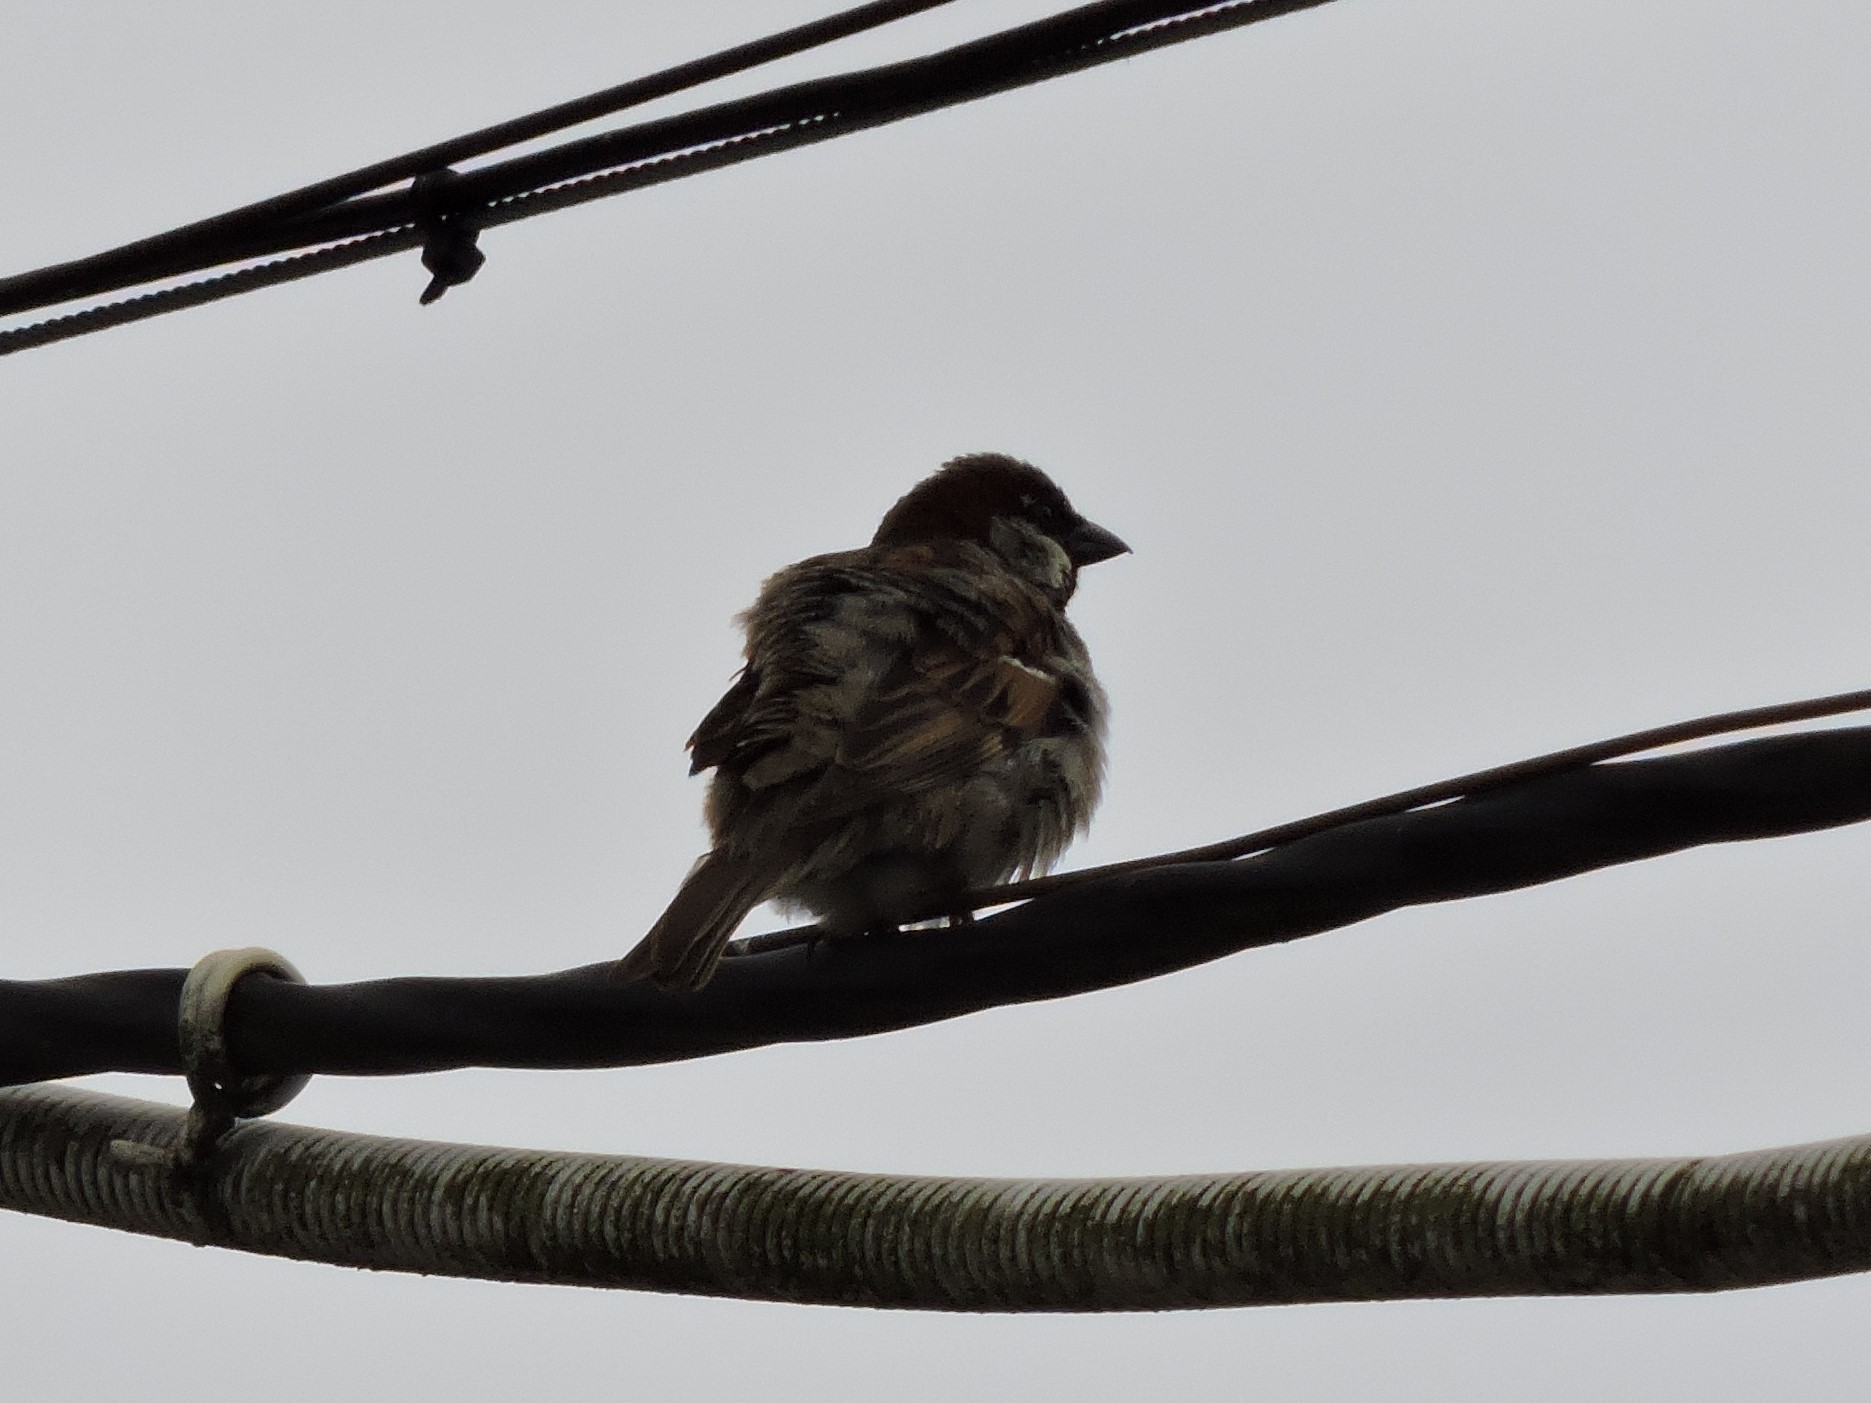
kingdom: Animalia
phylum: Chordata
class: Aves
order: Passeriformes
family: Passeridae
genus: Passer
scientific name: Passer domesticus
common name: House sparrow
